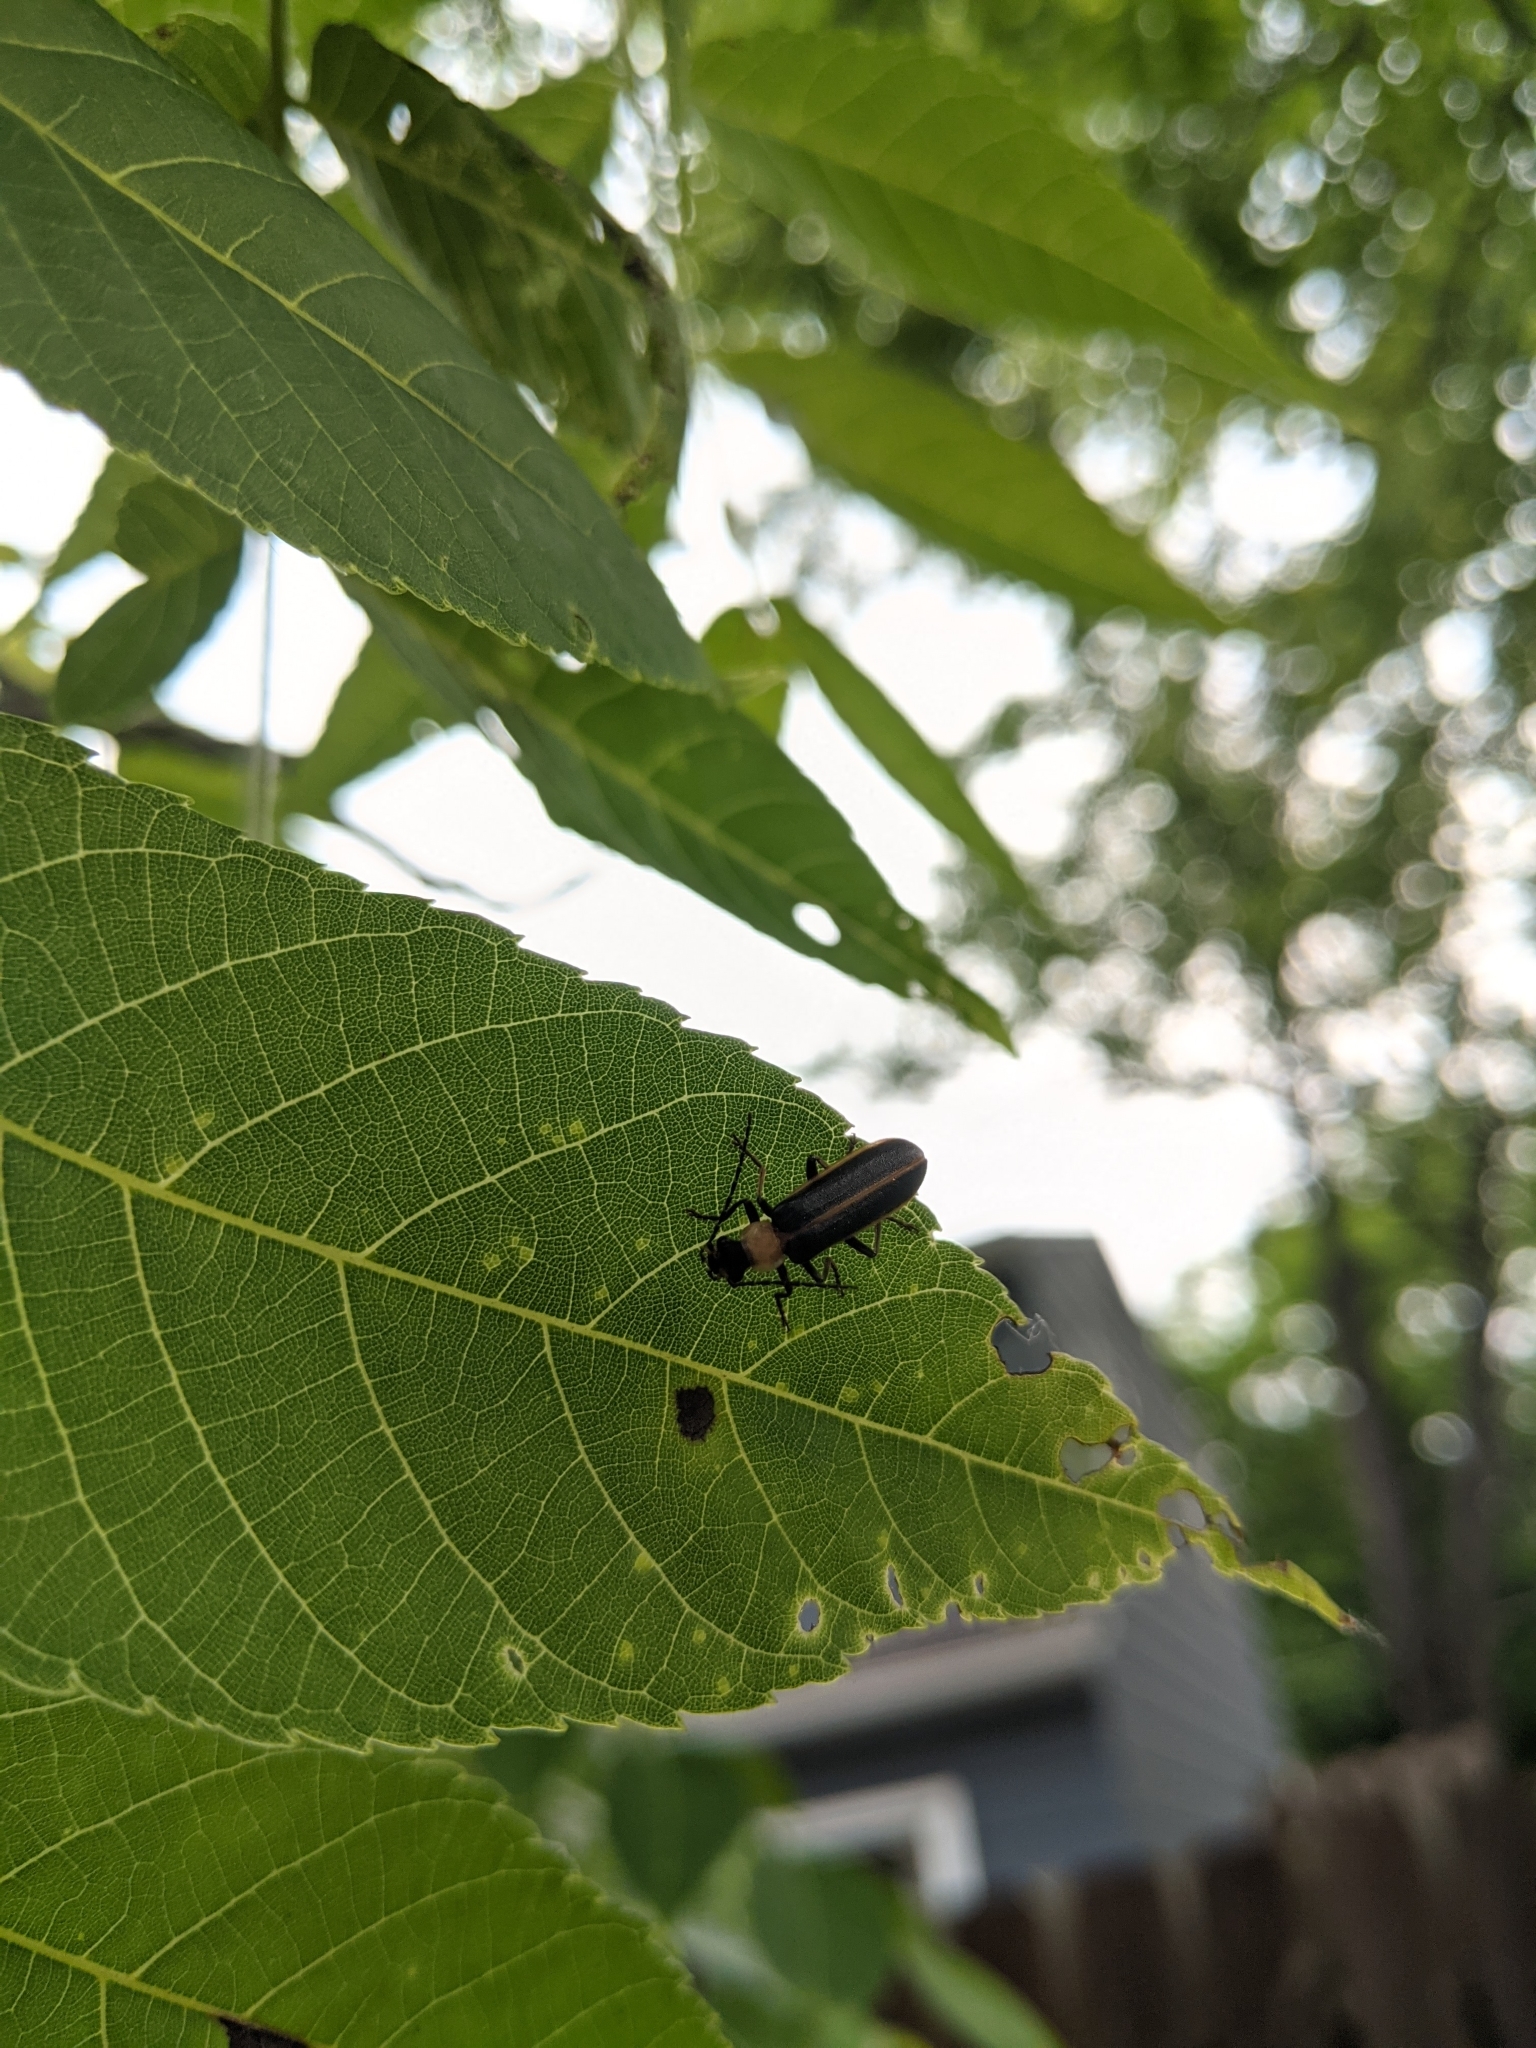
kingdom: Animalia
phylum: Arthropoda
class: Insecta
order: Coleoptera
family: Cantharidae
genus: Podabrus
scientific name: Podabrus flavicollis
